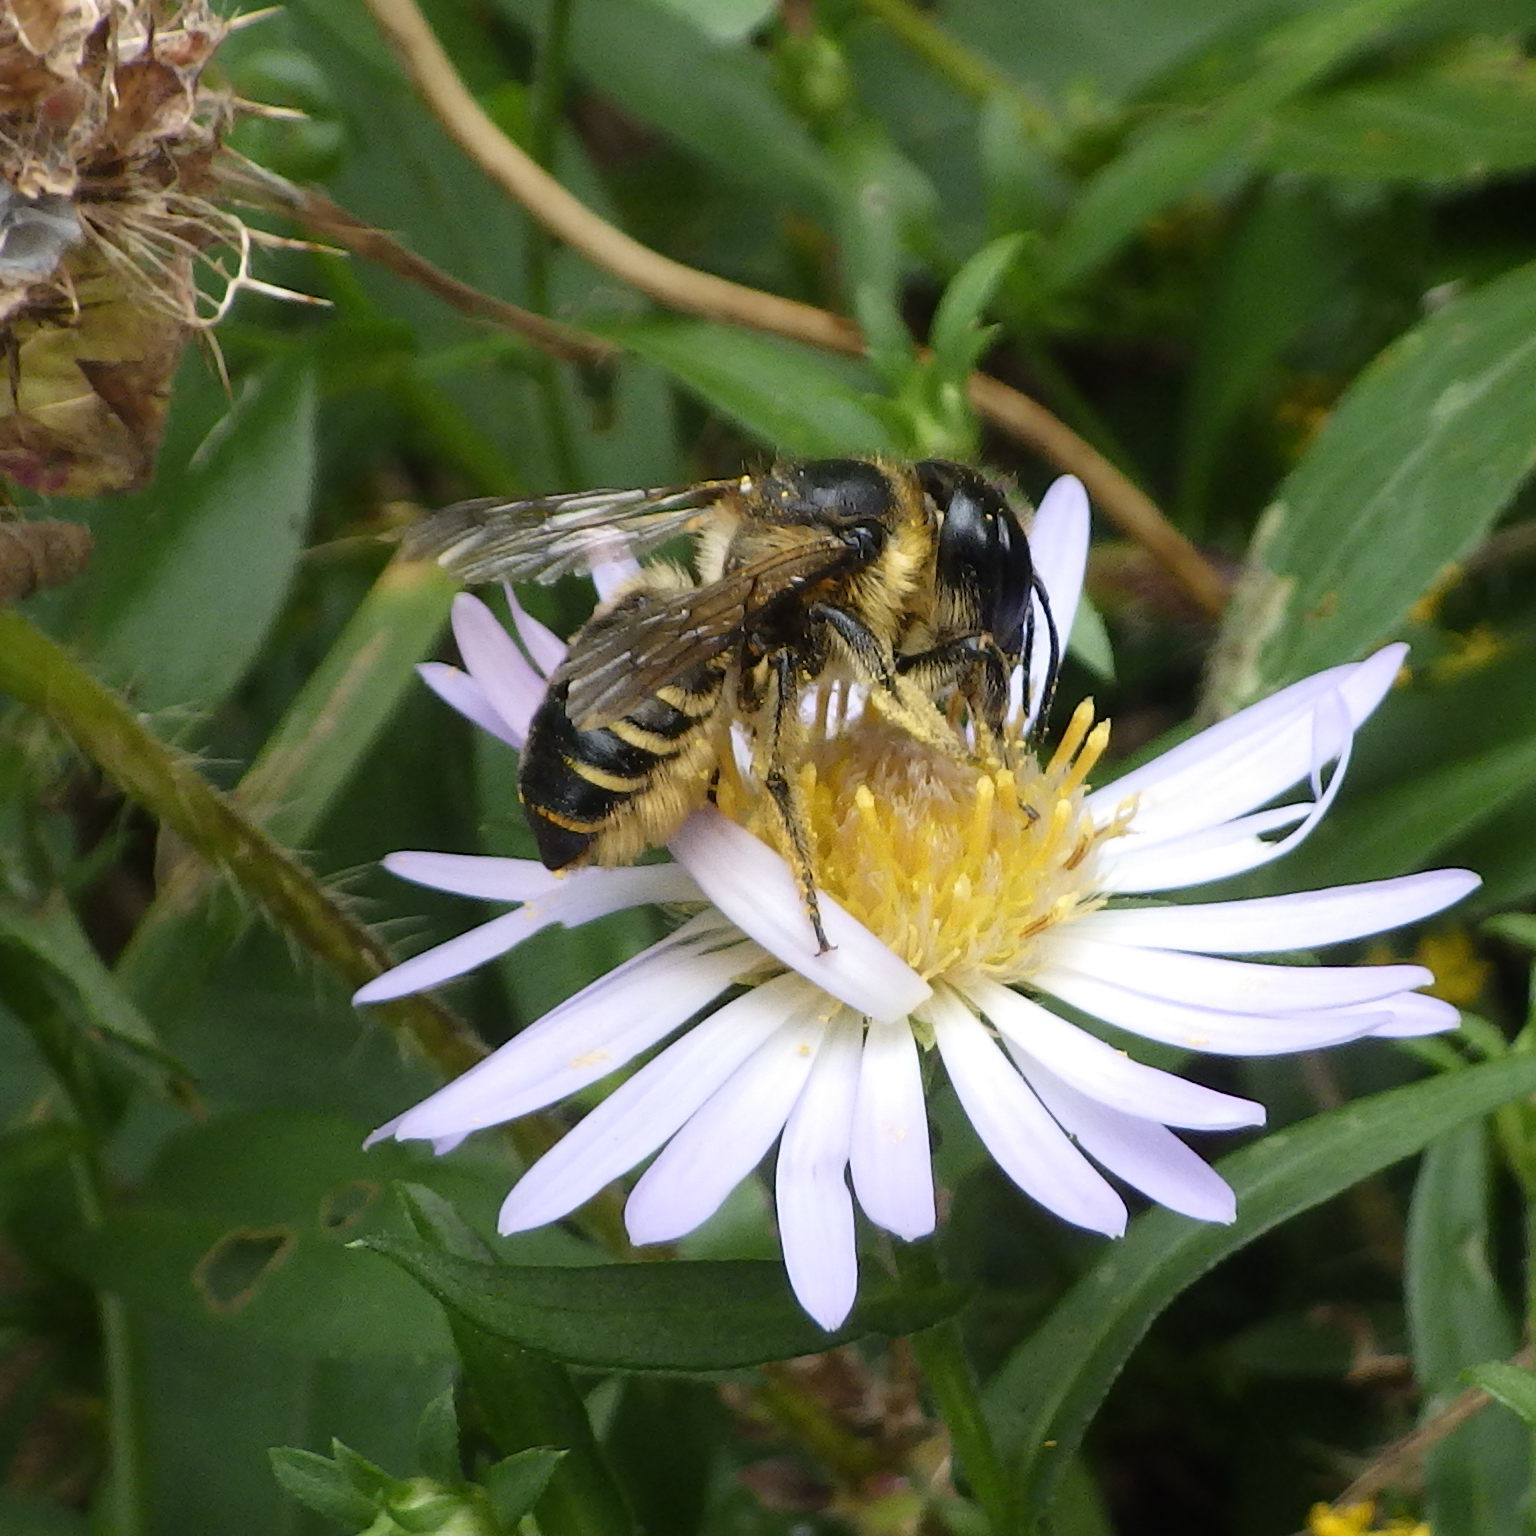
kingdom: Animalia
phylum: Arthropoda
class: Insecta
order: Hymenoptera
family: Megachilidae
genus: Megachile
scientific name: Megachile inermis
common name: Unarmed leafcutter bee
